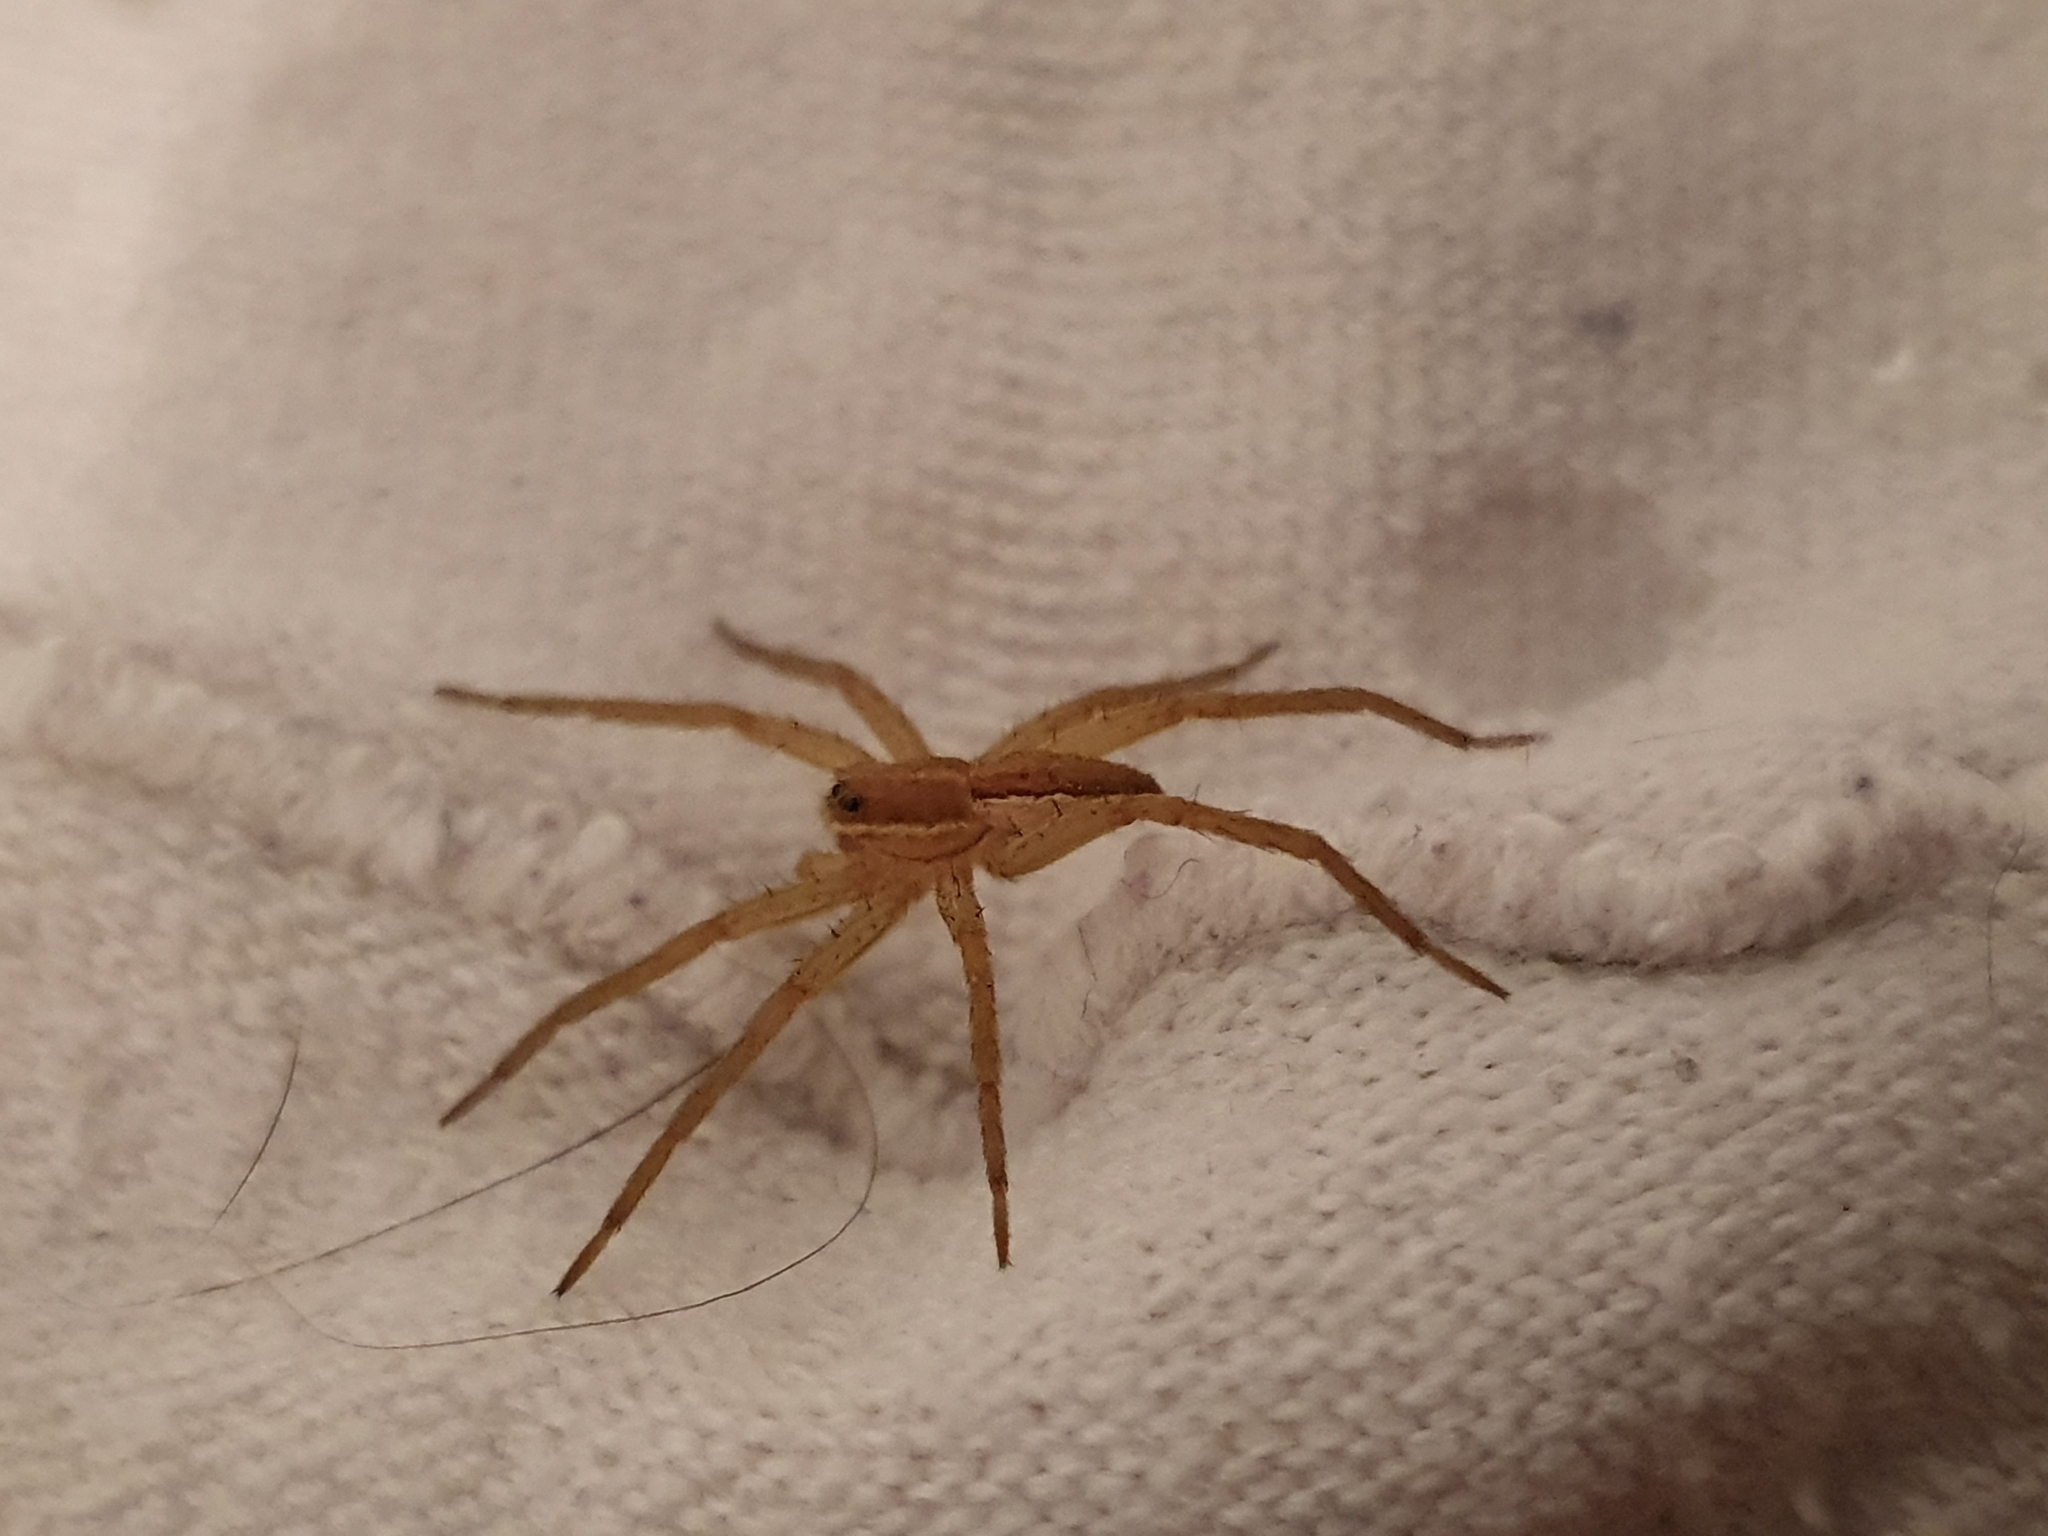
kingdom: Animalia
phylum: Arthropoda
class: Arachnida
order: Araneae
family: Pisauridae
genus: Dolomedes
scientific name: Dolomedes minor
